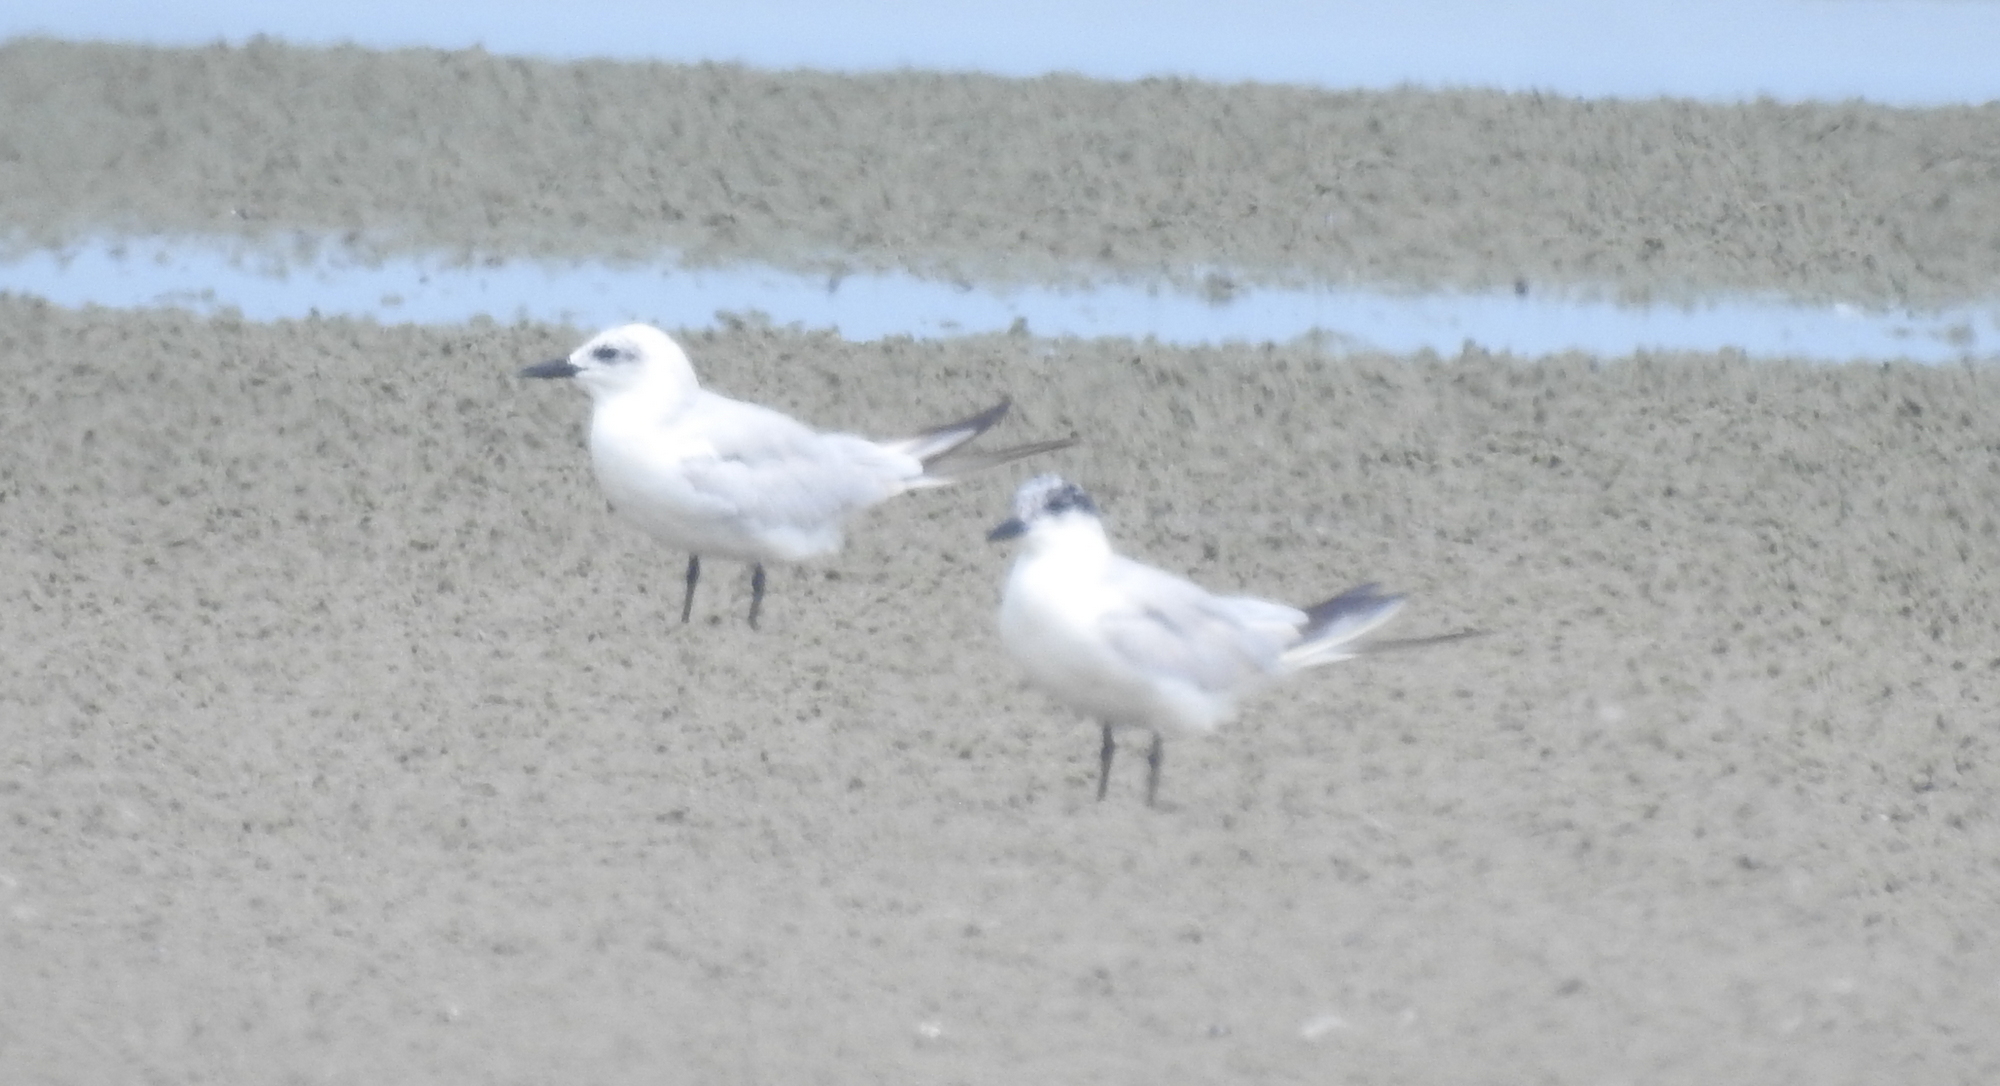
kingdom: Animalia
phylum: Chordata
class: Aves
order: Charadriiformes
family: Laridae
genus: Gelochelidon
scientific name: Gelochelidon nilotica
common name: Gull-billed tern
